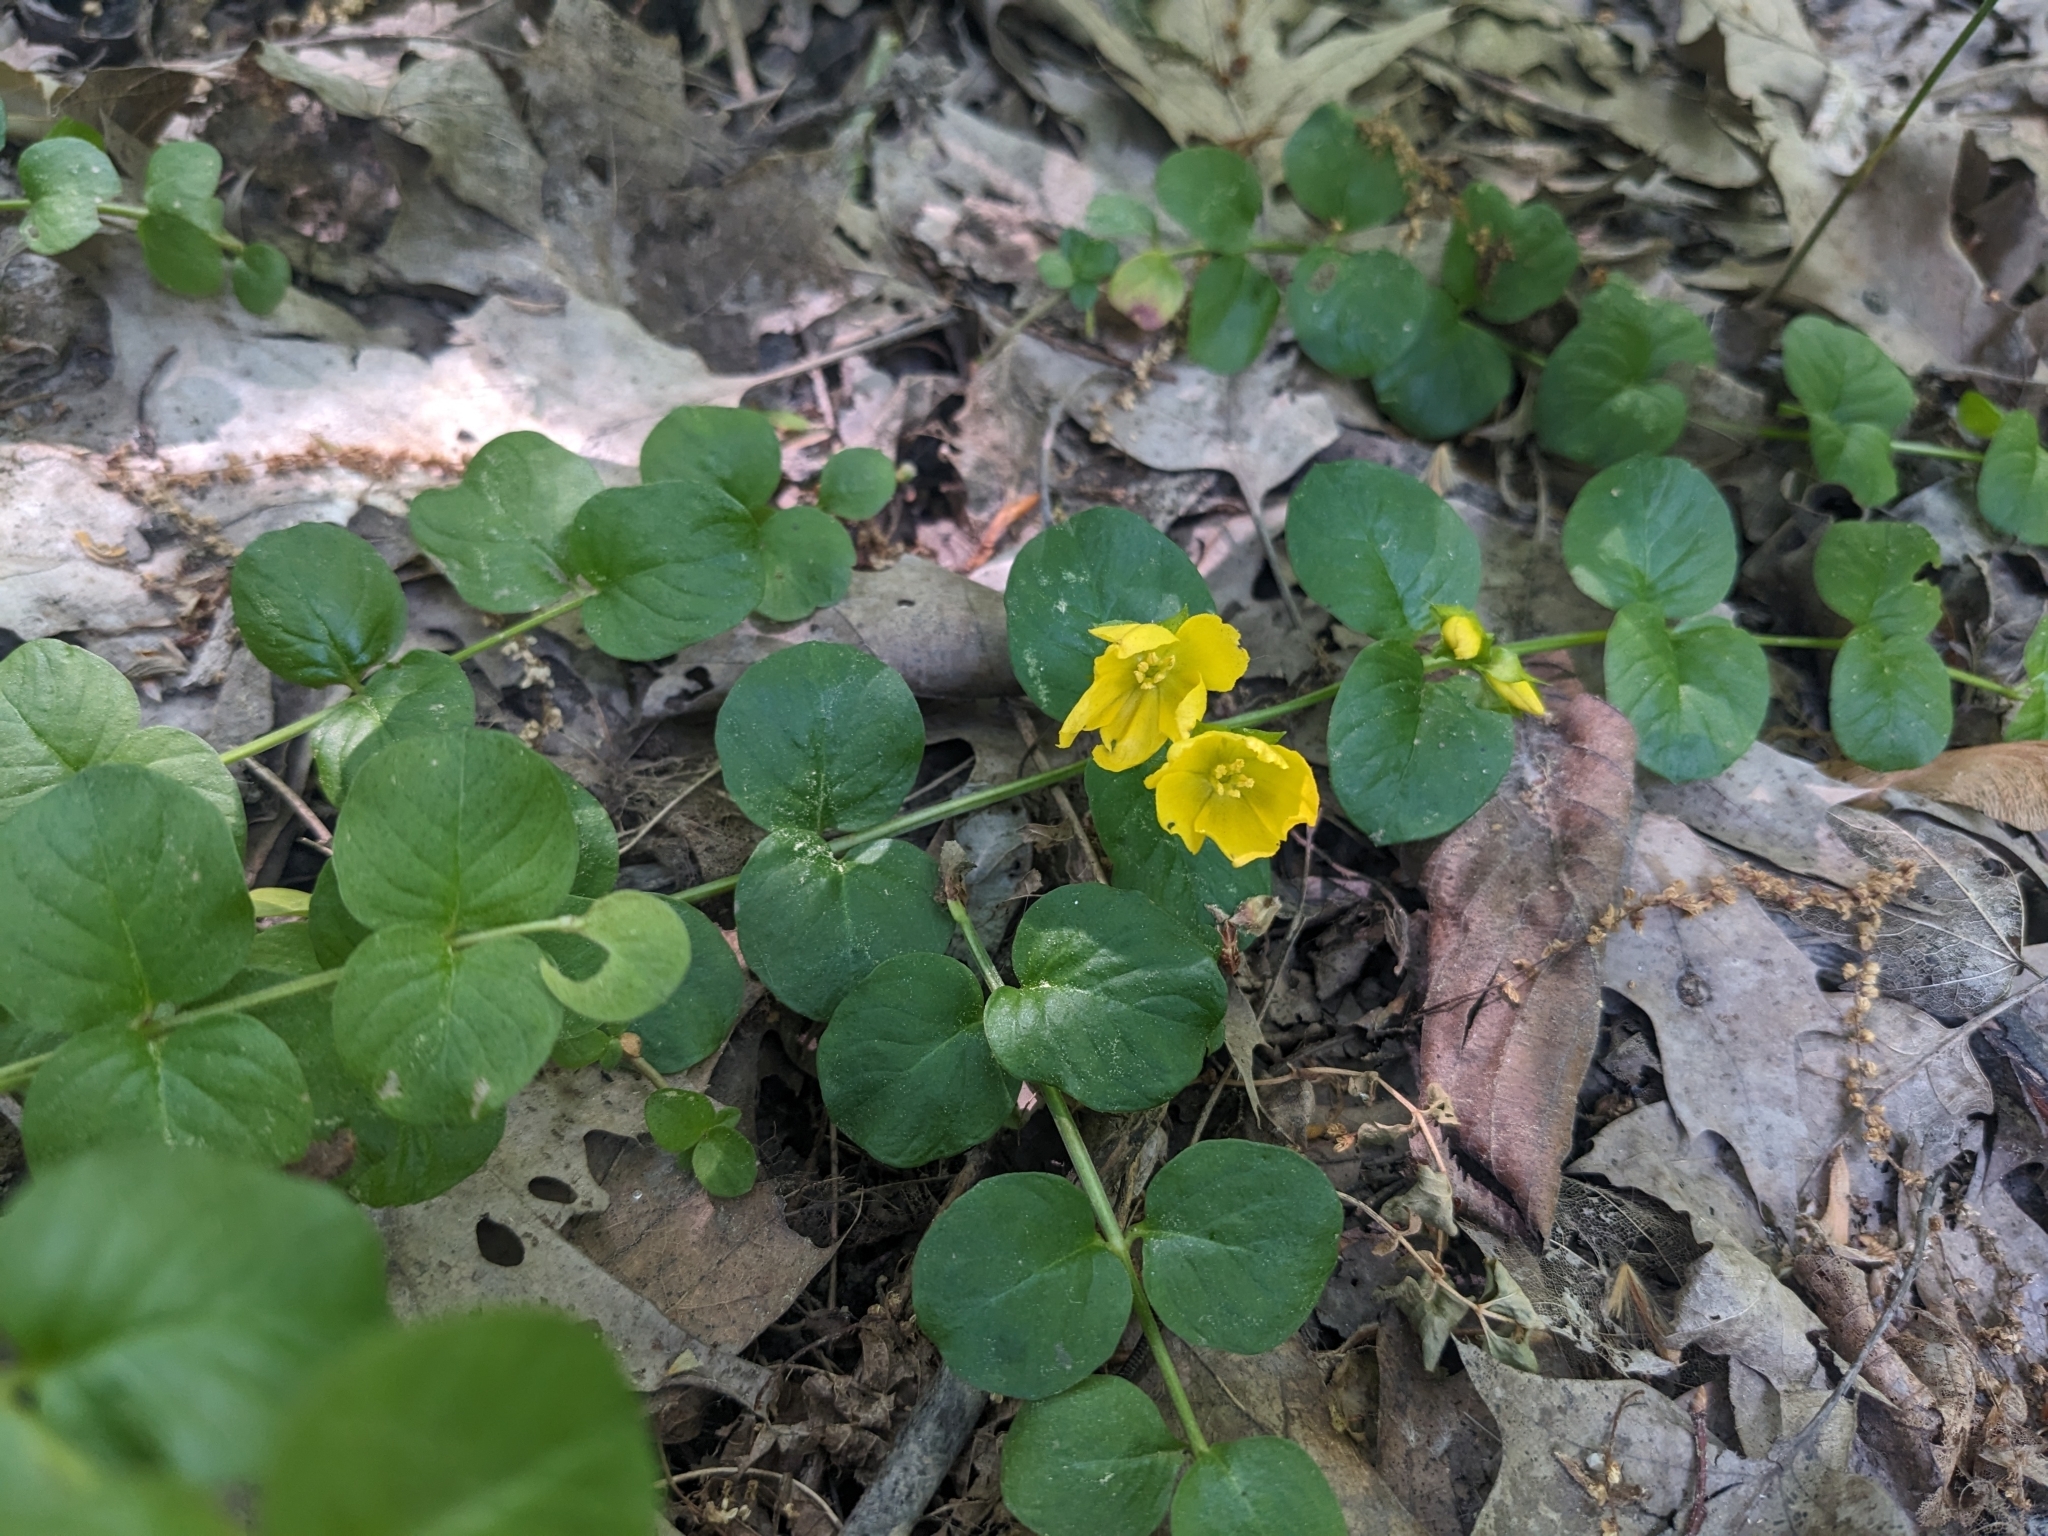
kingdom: Plantae
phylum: Tracheophyta
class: Magnoliopsida
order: Ericales
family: Primulaceae
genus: Lysimachia
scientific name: Lysimachia nummularia
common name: Moneywort
